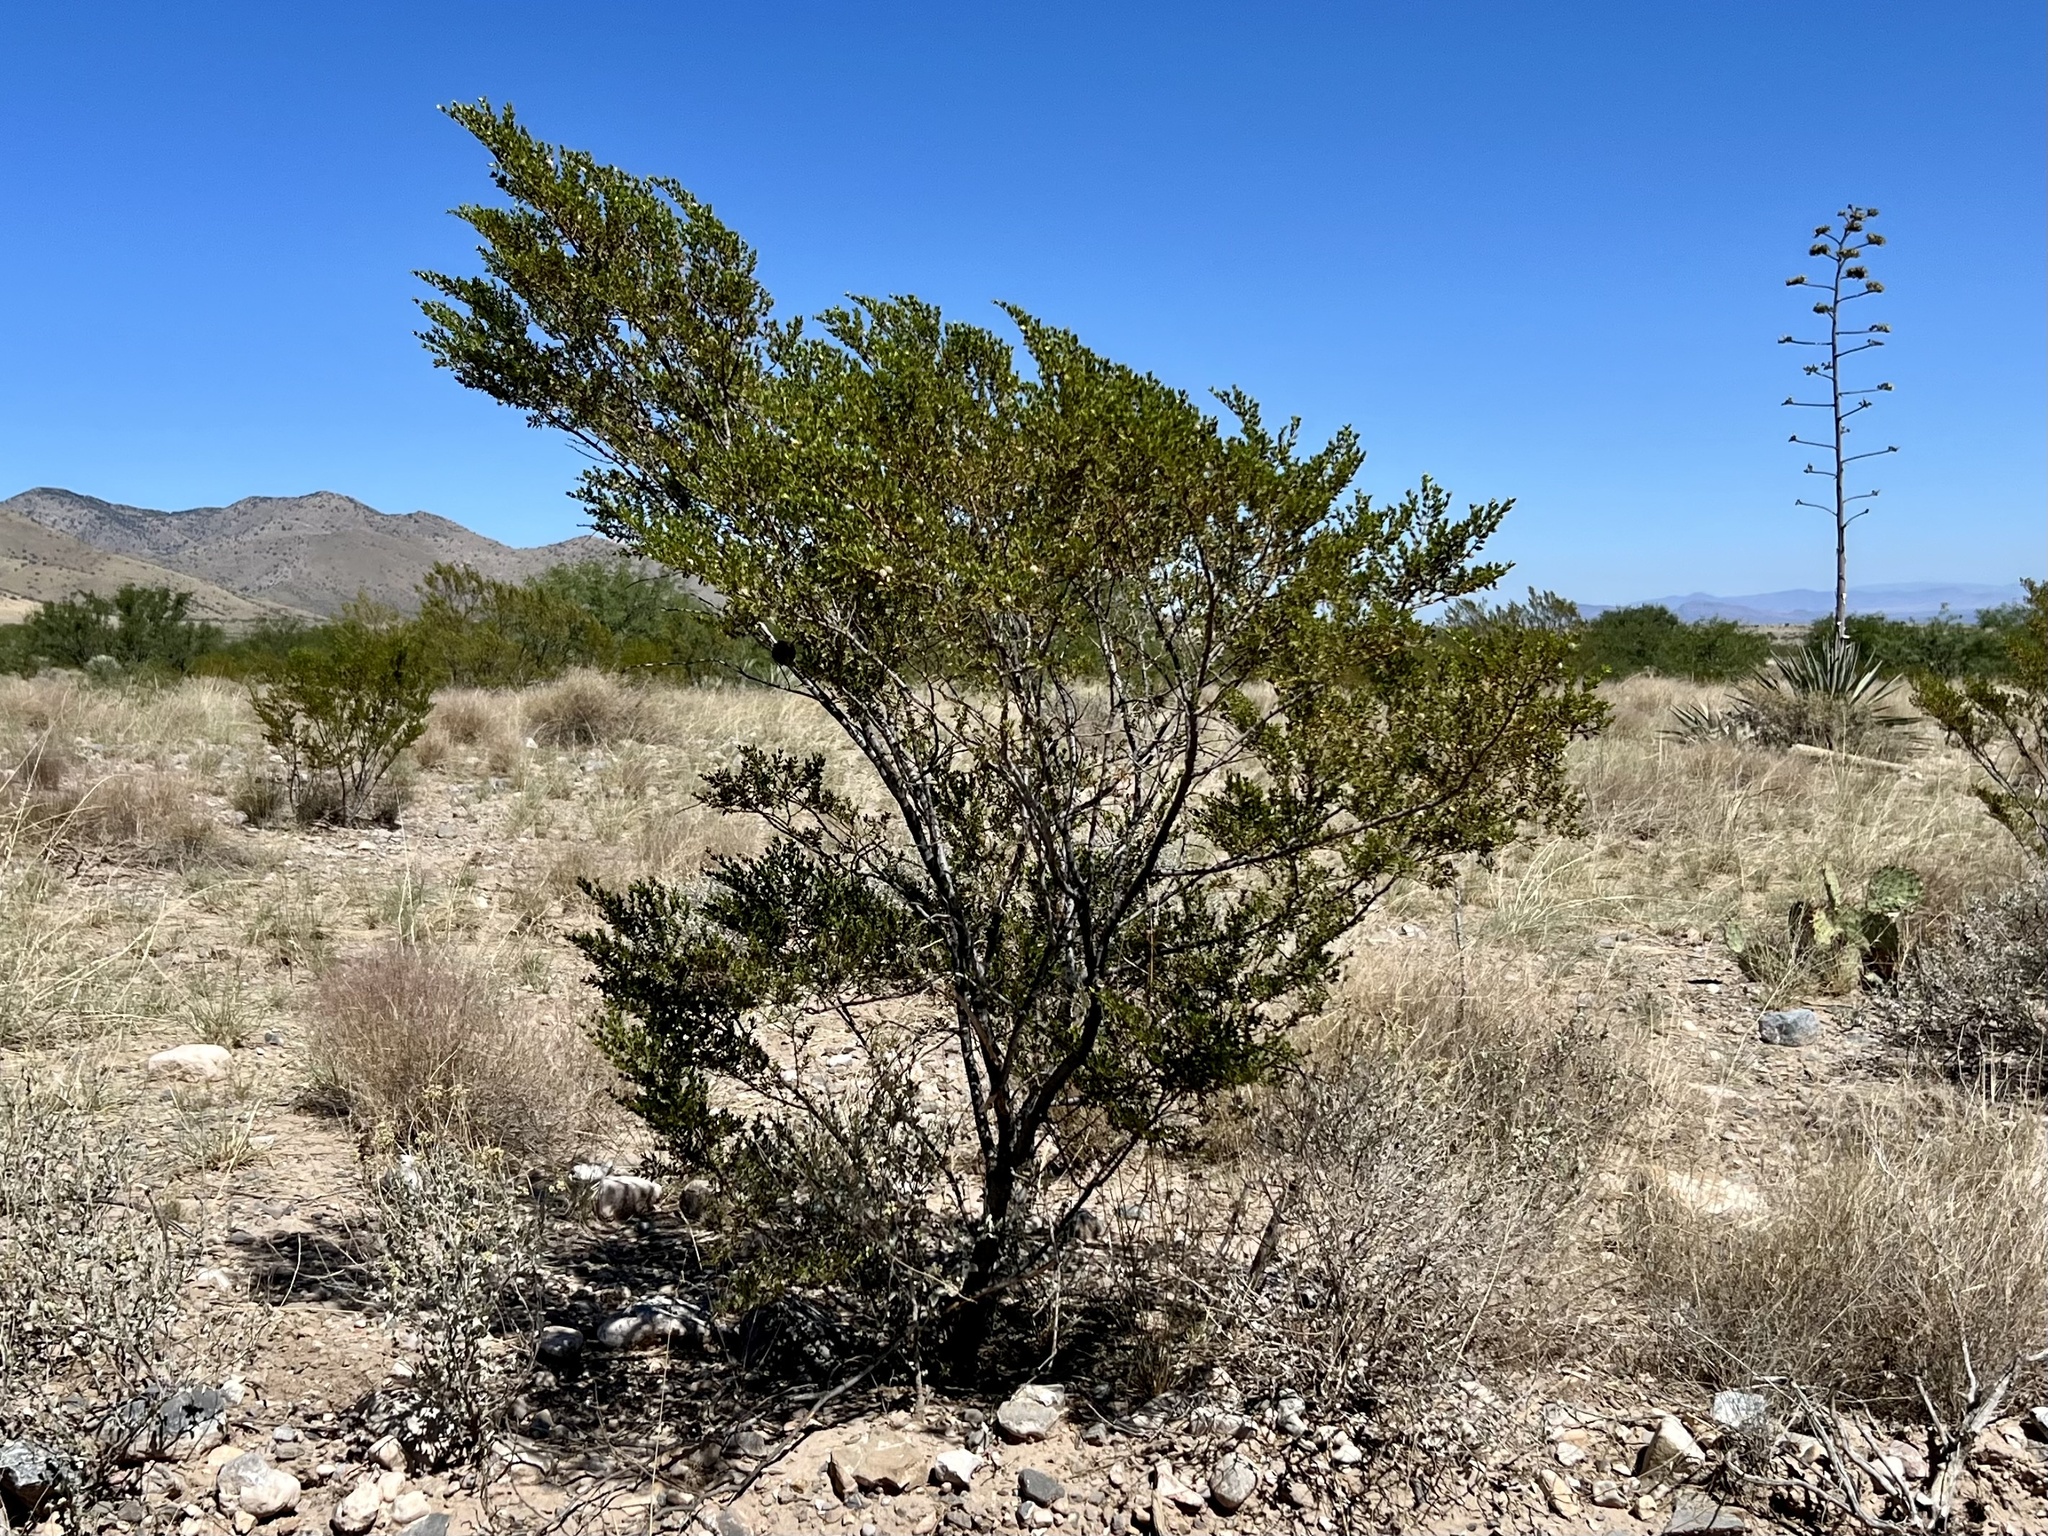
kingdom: Plantae
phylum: Tracheophyta
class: Magnoliopsida
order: Zygophyllales
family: Zygophyllaceae
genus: Larrea
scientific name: Larrea tridentata
